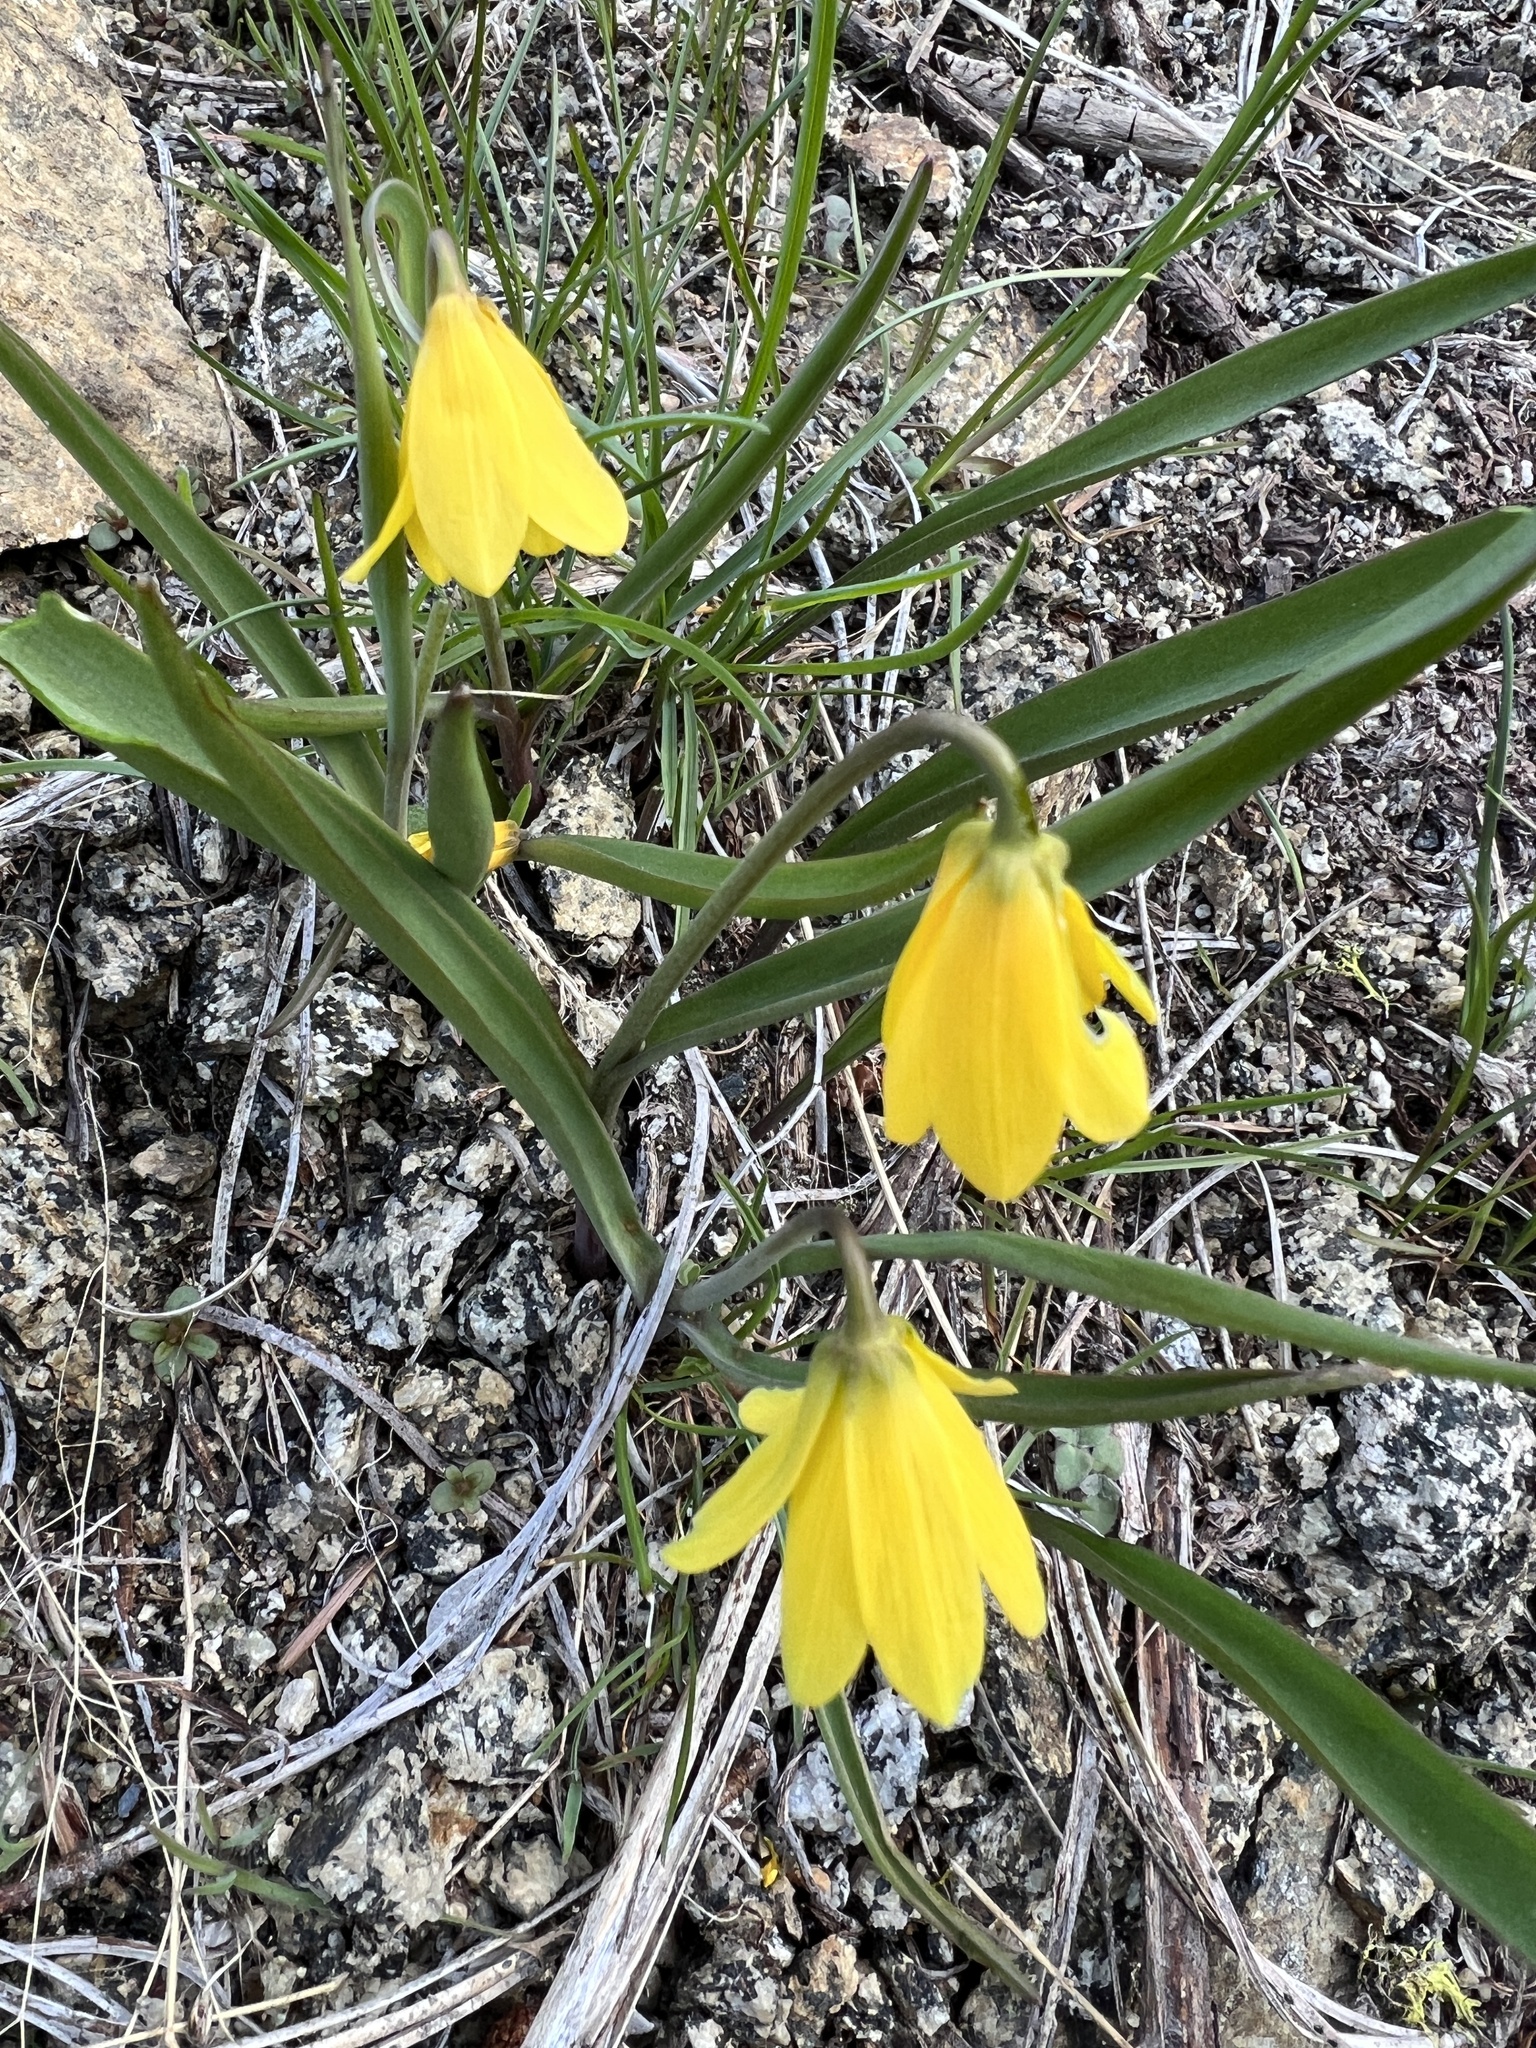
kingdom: Plantae
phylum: Tracheophyta
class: Liliopsida
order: Liliales
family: Liliaceae
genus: Fritillaria
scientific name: Fritillaria pudica
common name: Yellow fritillary
